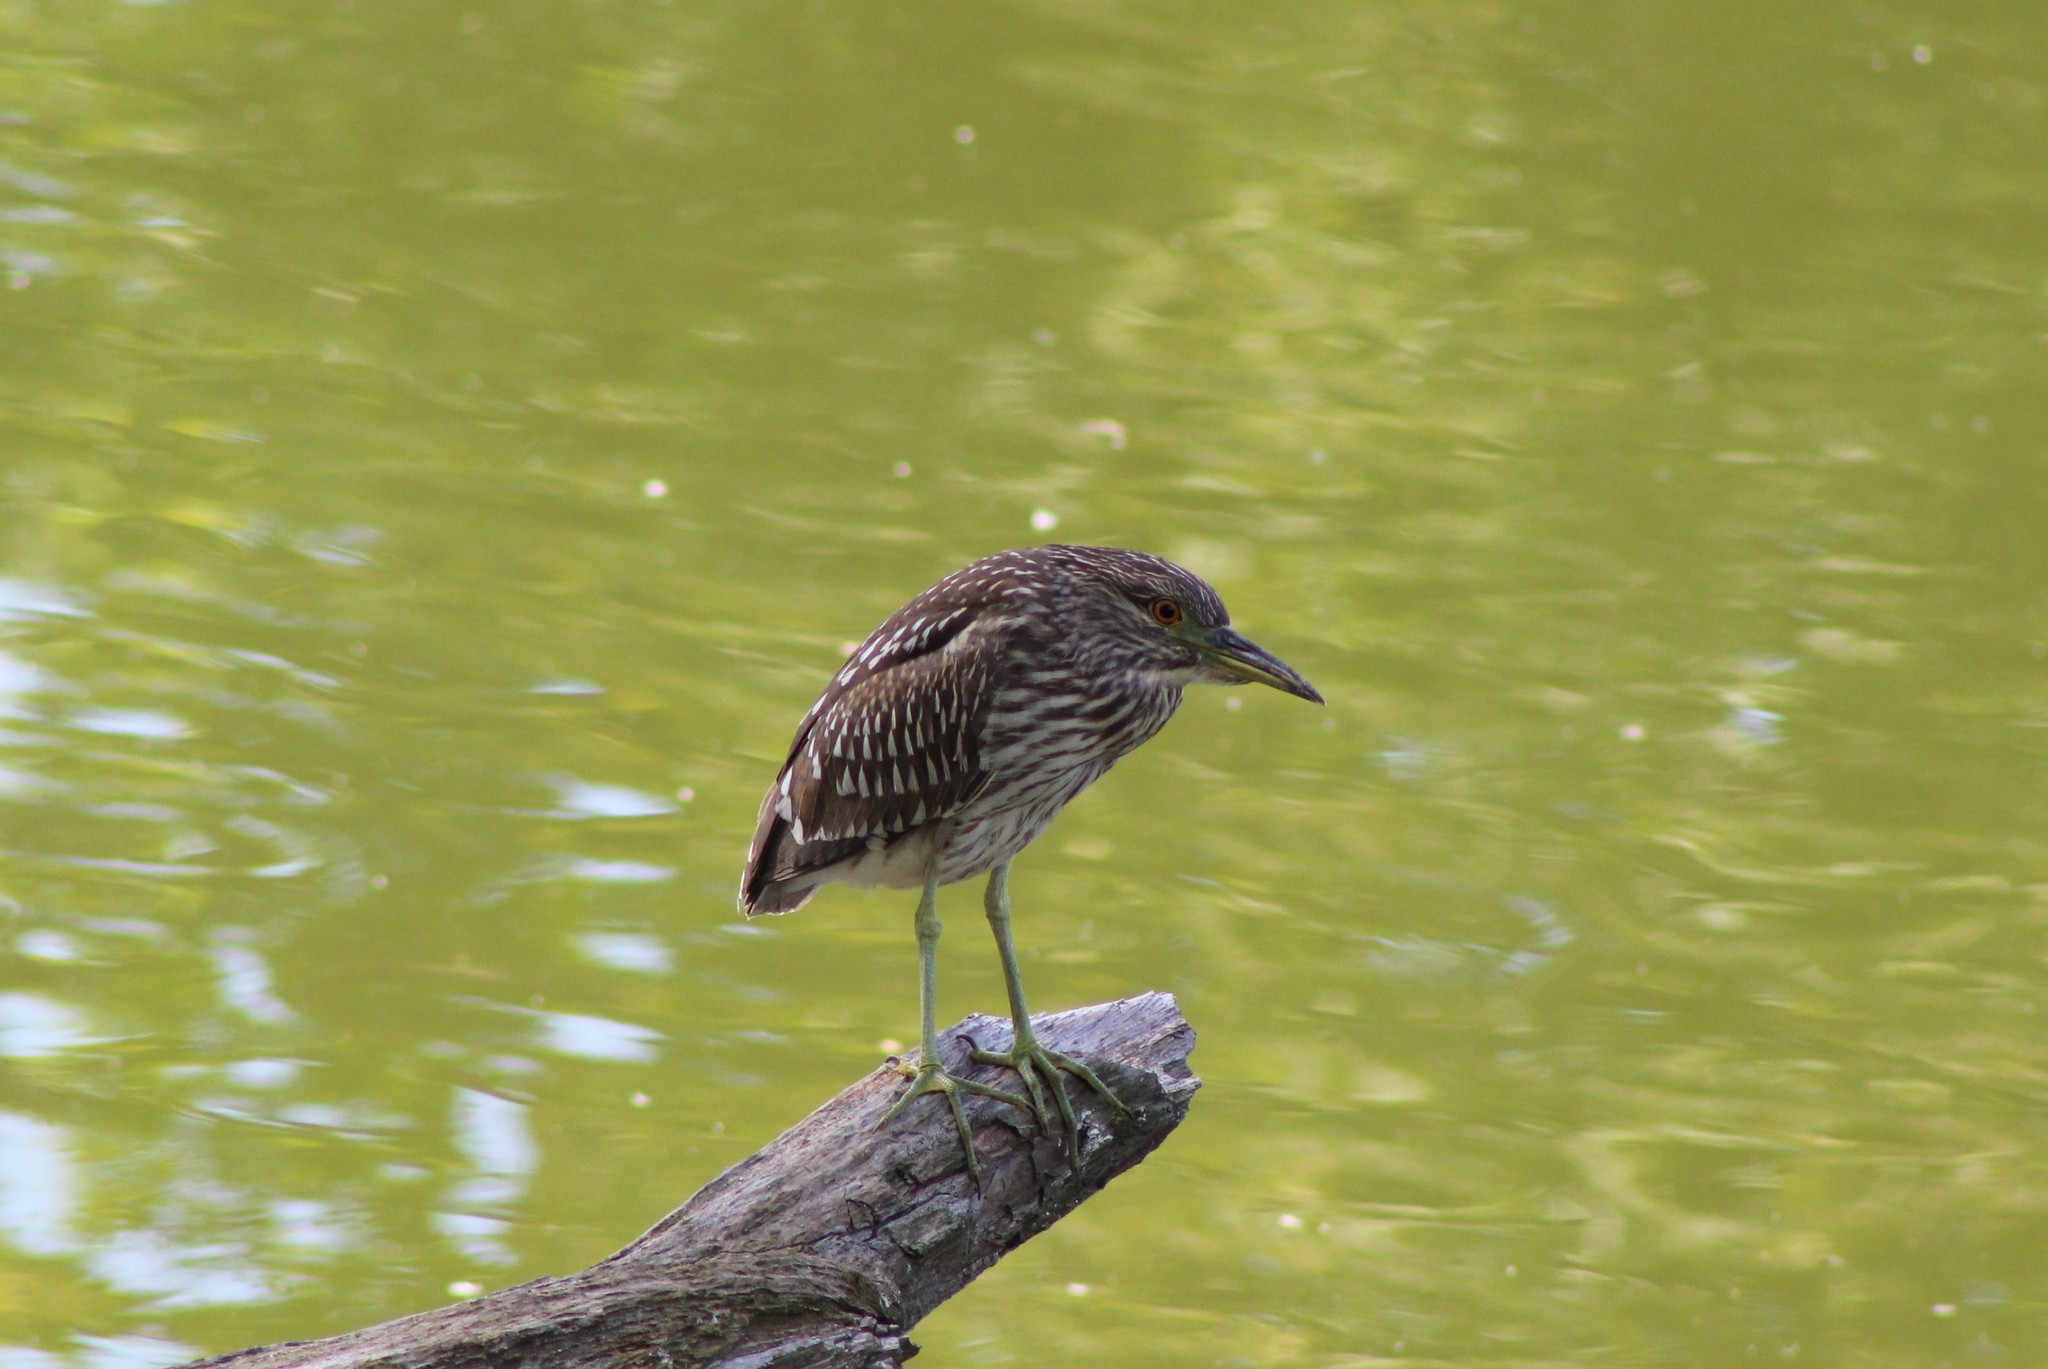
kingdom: Animalia
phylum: Chordata
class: Aves
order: Pelecaniformes
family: Ardeidae
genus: Nycticorax
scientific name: Nycticorax nycticorax
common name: Black-crowned night heron
